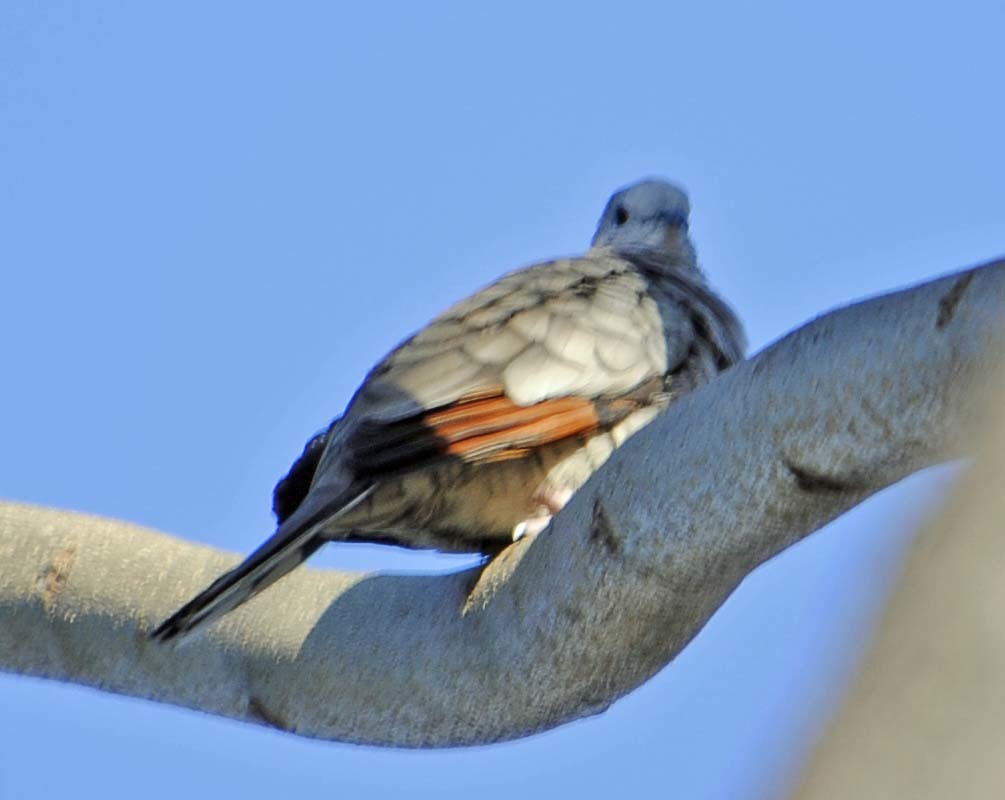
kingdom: Animalia
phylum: Chordata
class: Aves
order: Columbiformes
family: Columbidae
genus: Columbina
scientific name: Columbina inca
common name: Inca dove
